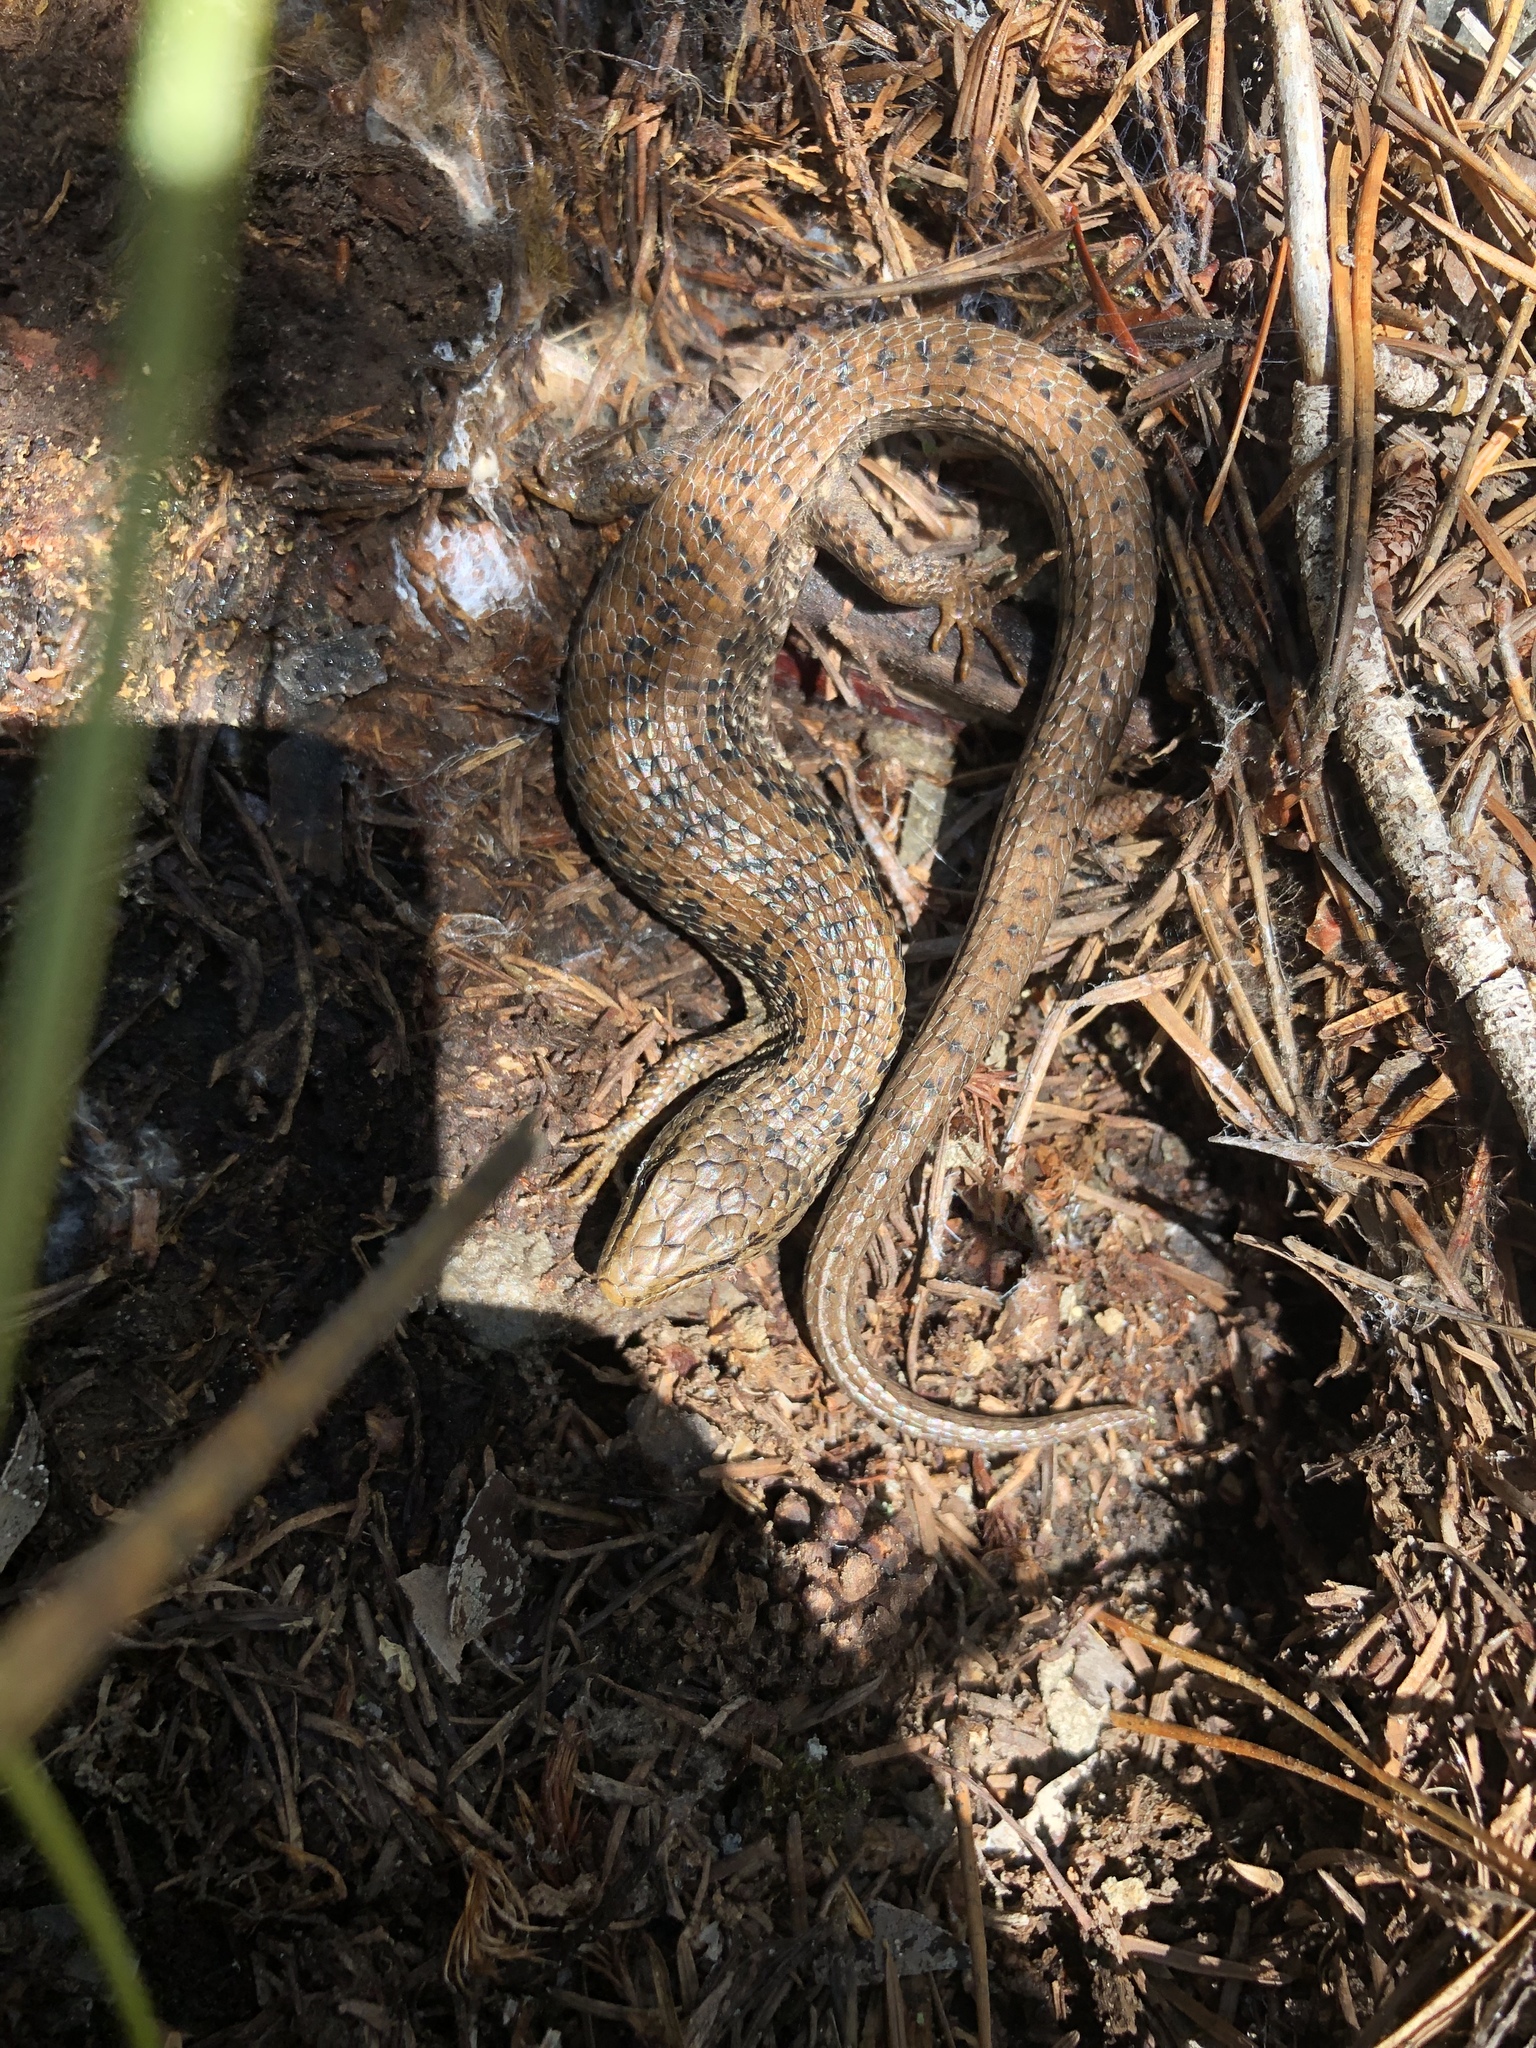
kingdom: Animalia
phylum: Chordata
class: Squamata
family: Anguidae
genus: Elgaria
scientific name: Elgaria coerulea
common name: Northern alligator lizard
